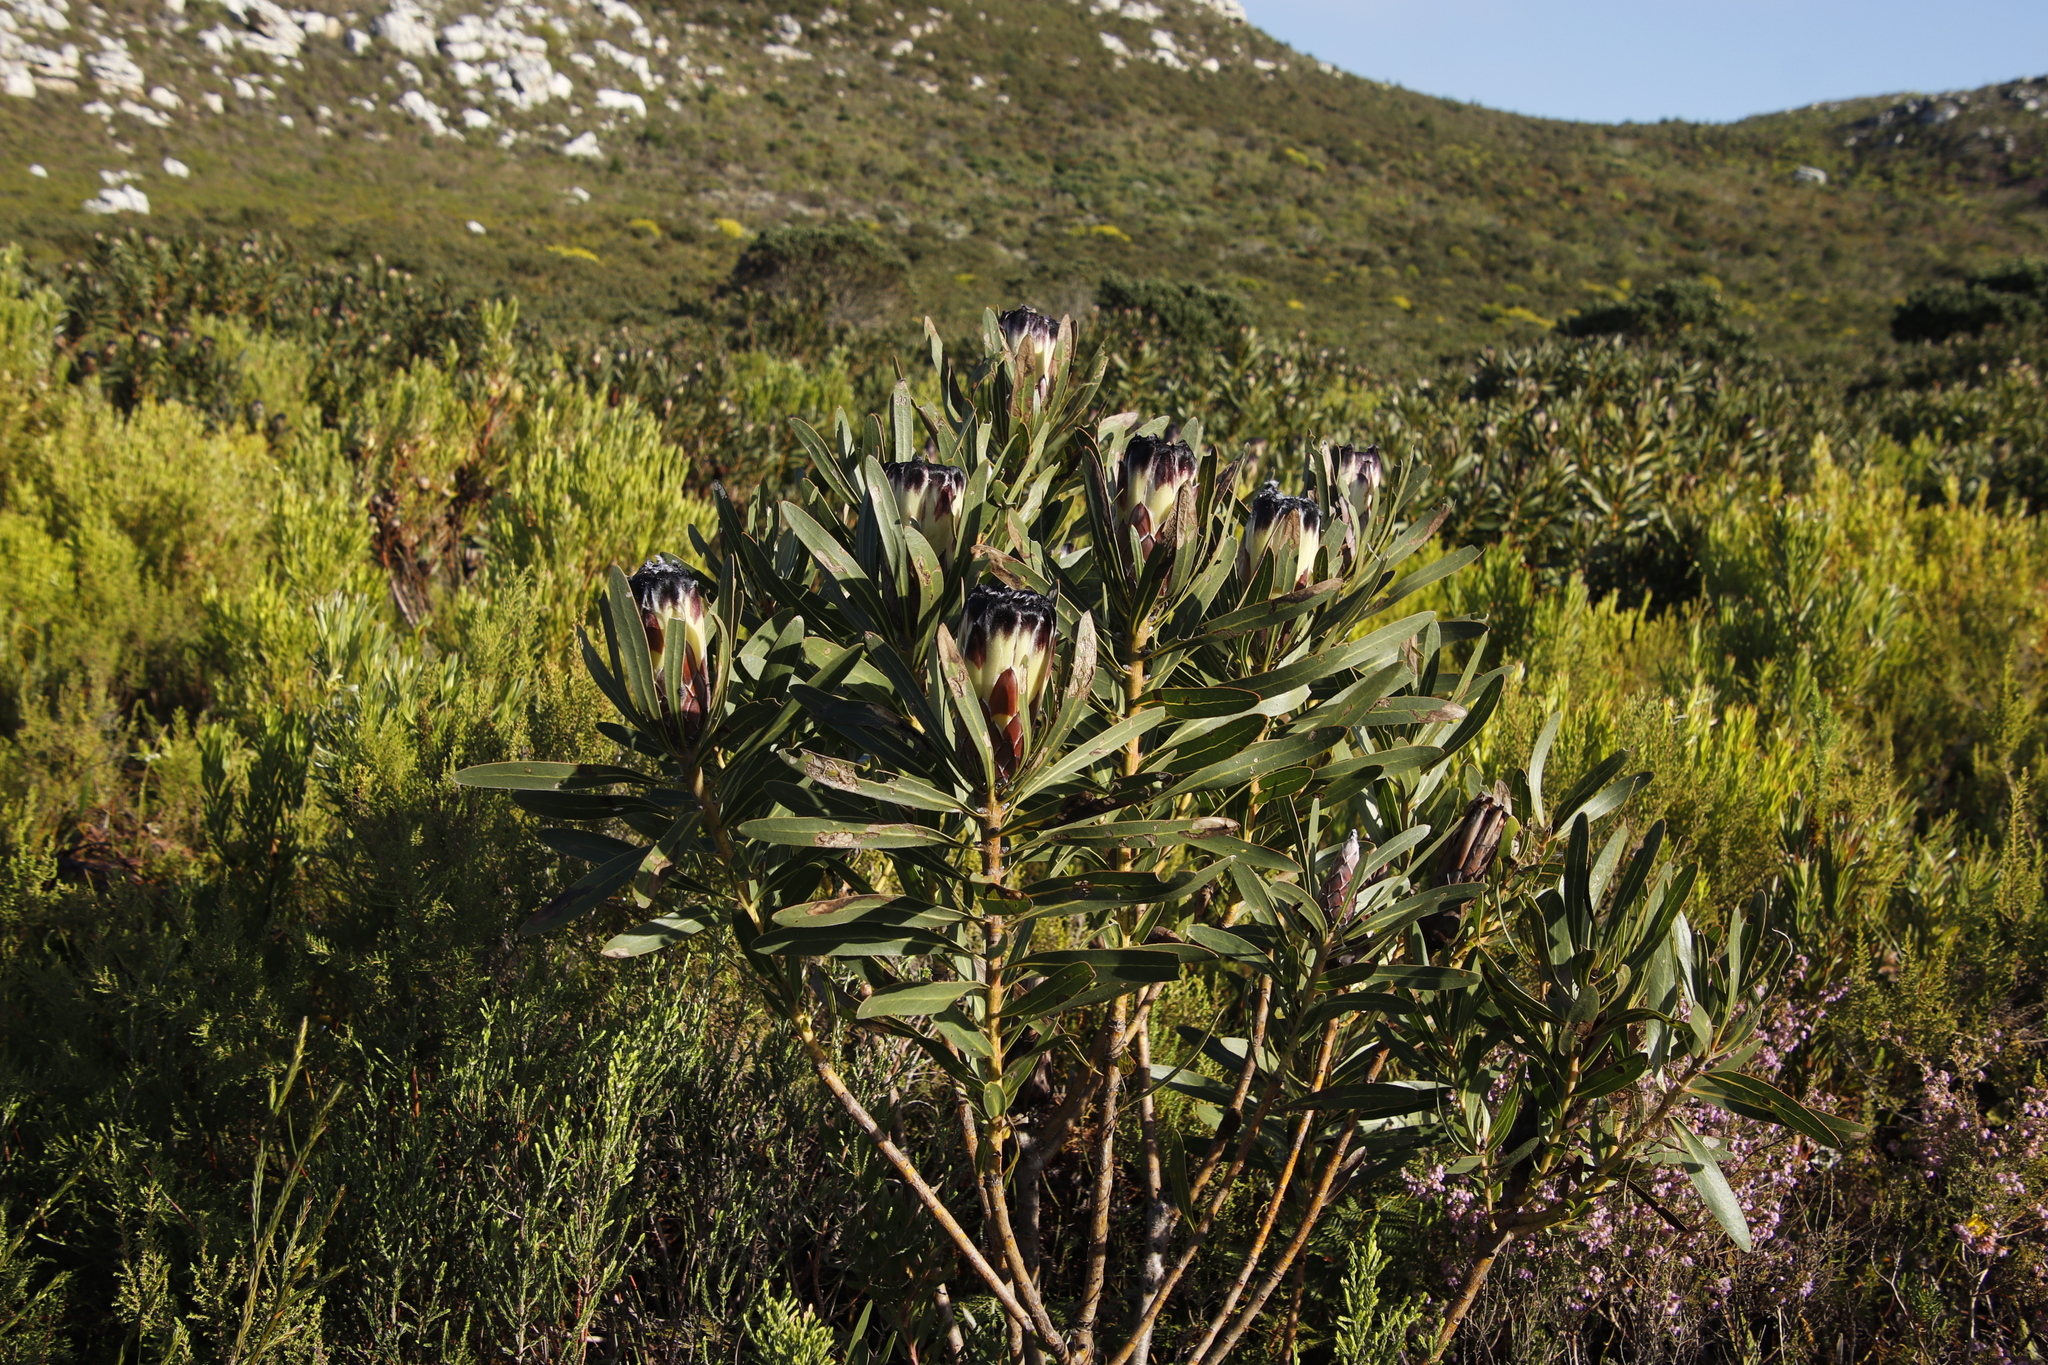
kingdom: Plantae
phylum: Tracheophyta
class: Magnoliopsida
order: Proteales
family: Proteaceae
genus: Protea
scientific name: Protea lepidocarpodendron
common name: Black-bearded protea
